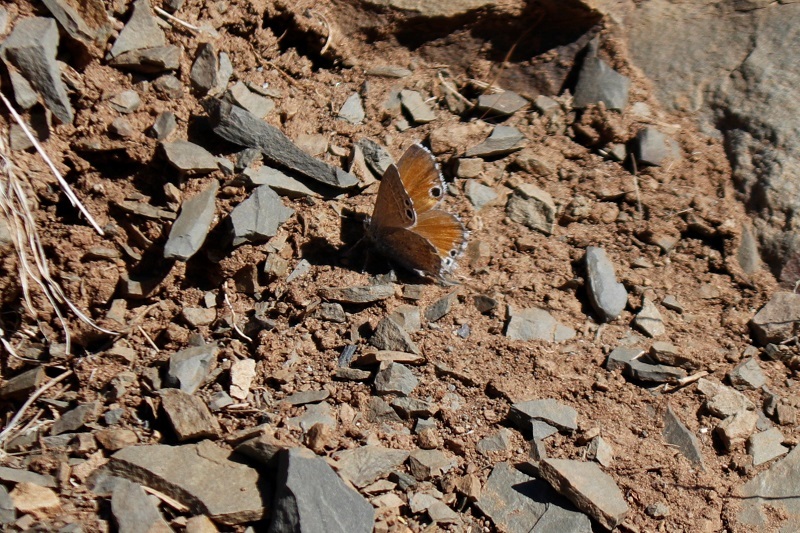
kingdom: Animalia
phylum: Arthropoda
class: Insecta
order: Lepidoptera
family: Lycaenidae
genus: Leptomyrina
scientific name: Leptomyrina lara
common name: Cape black-eye
